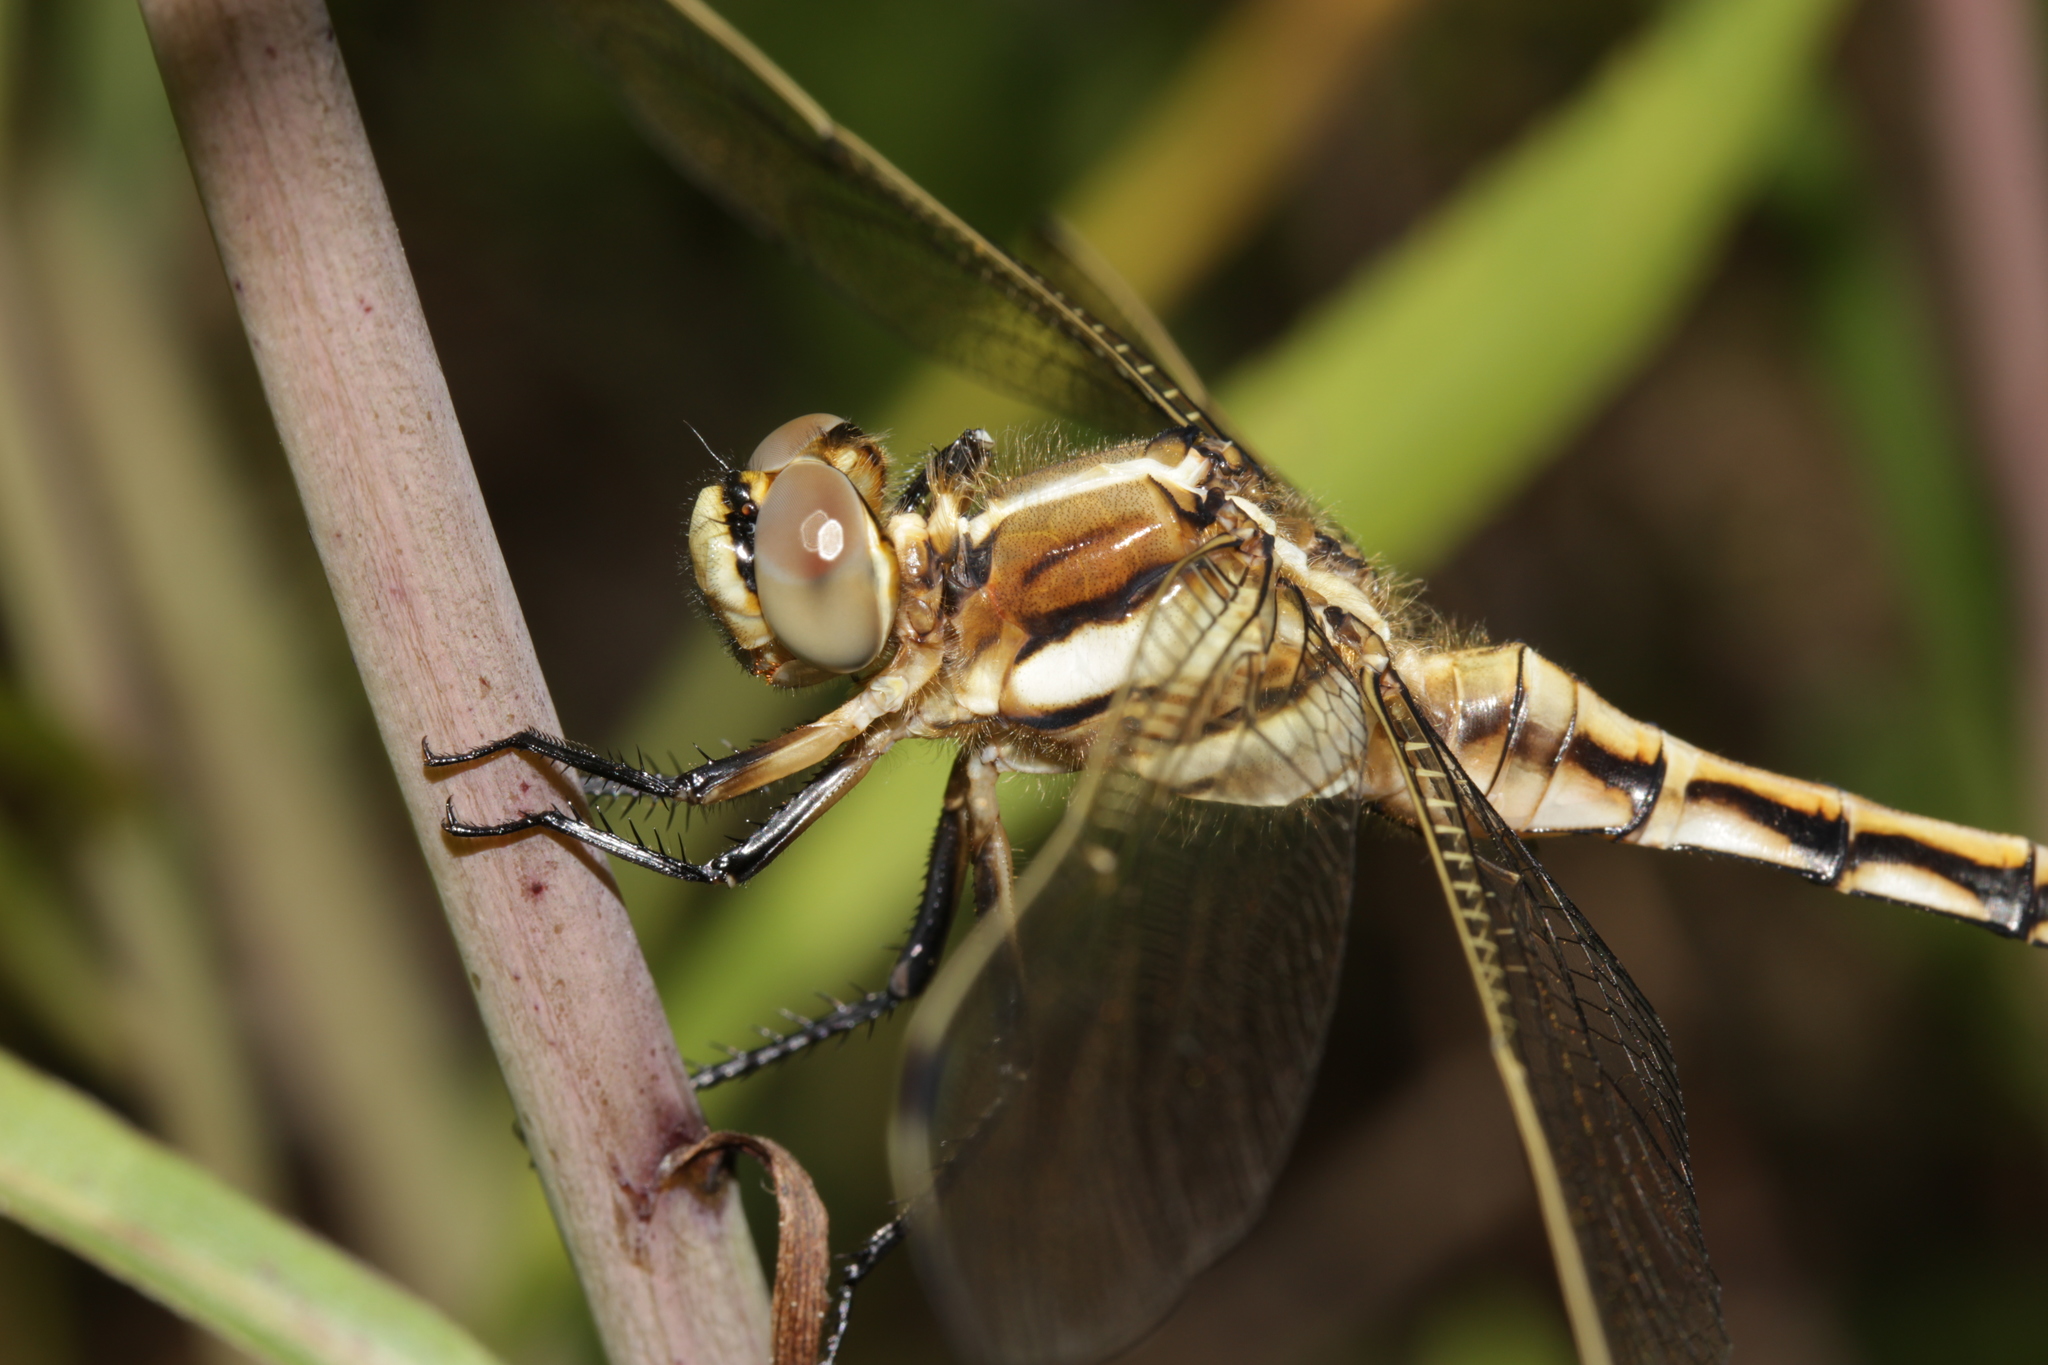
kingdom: Animalia
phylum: Arthropoda
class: Insecta
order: Odonata
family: Libellulidae
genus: Orthetrum
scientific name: Orthetrum albistylum
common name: White-tailed skimmer
